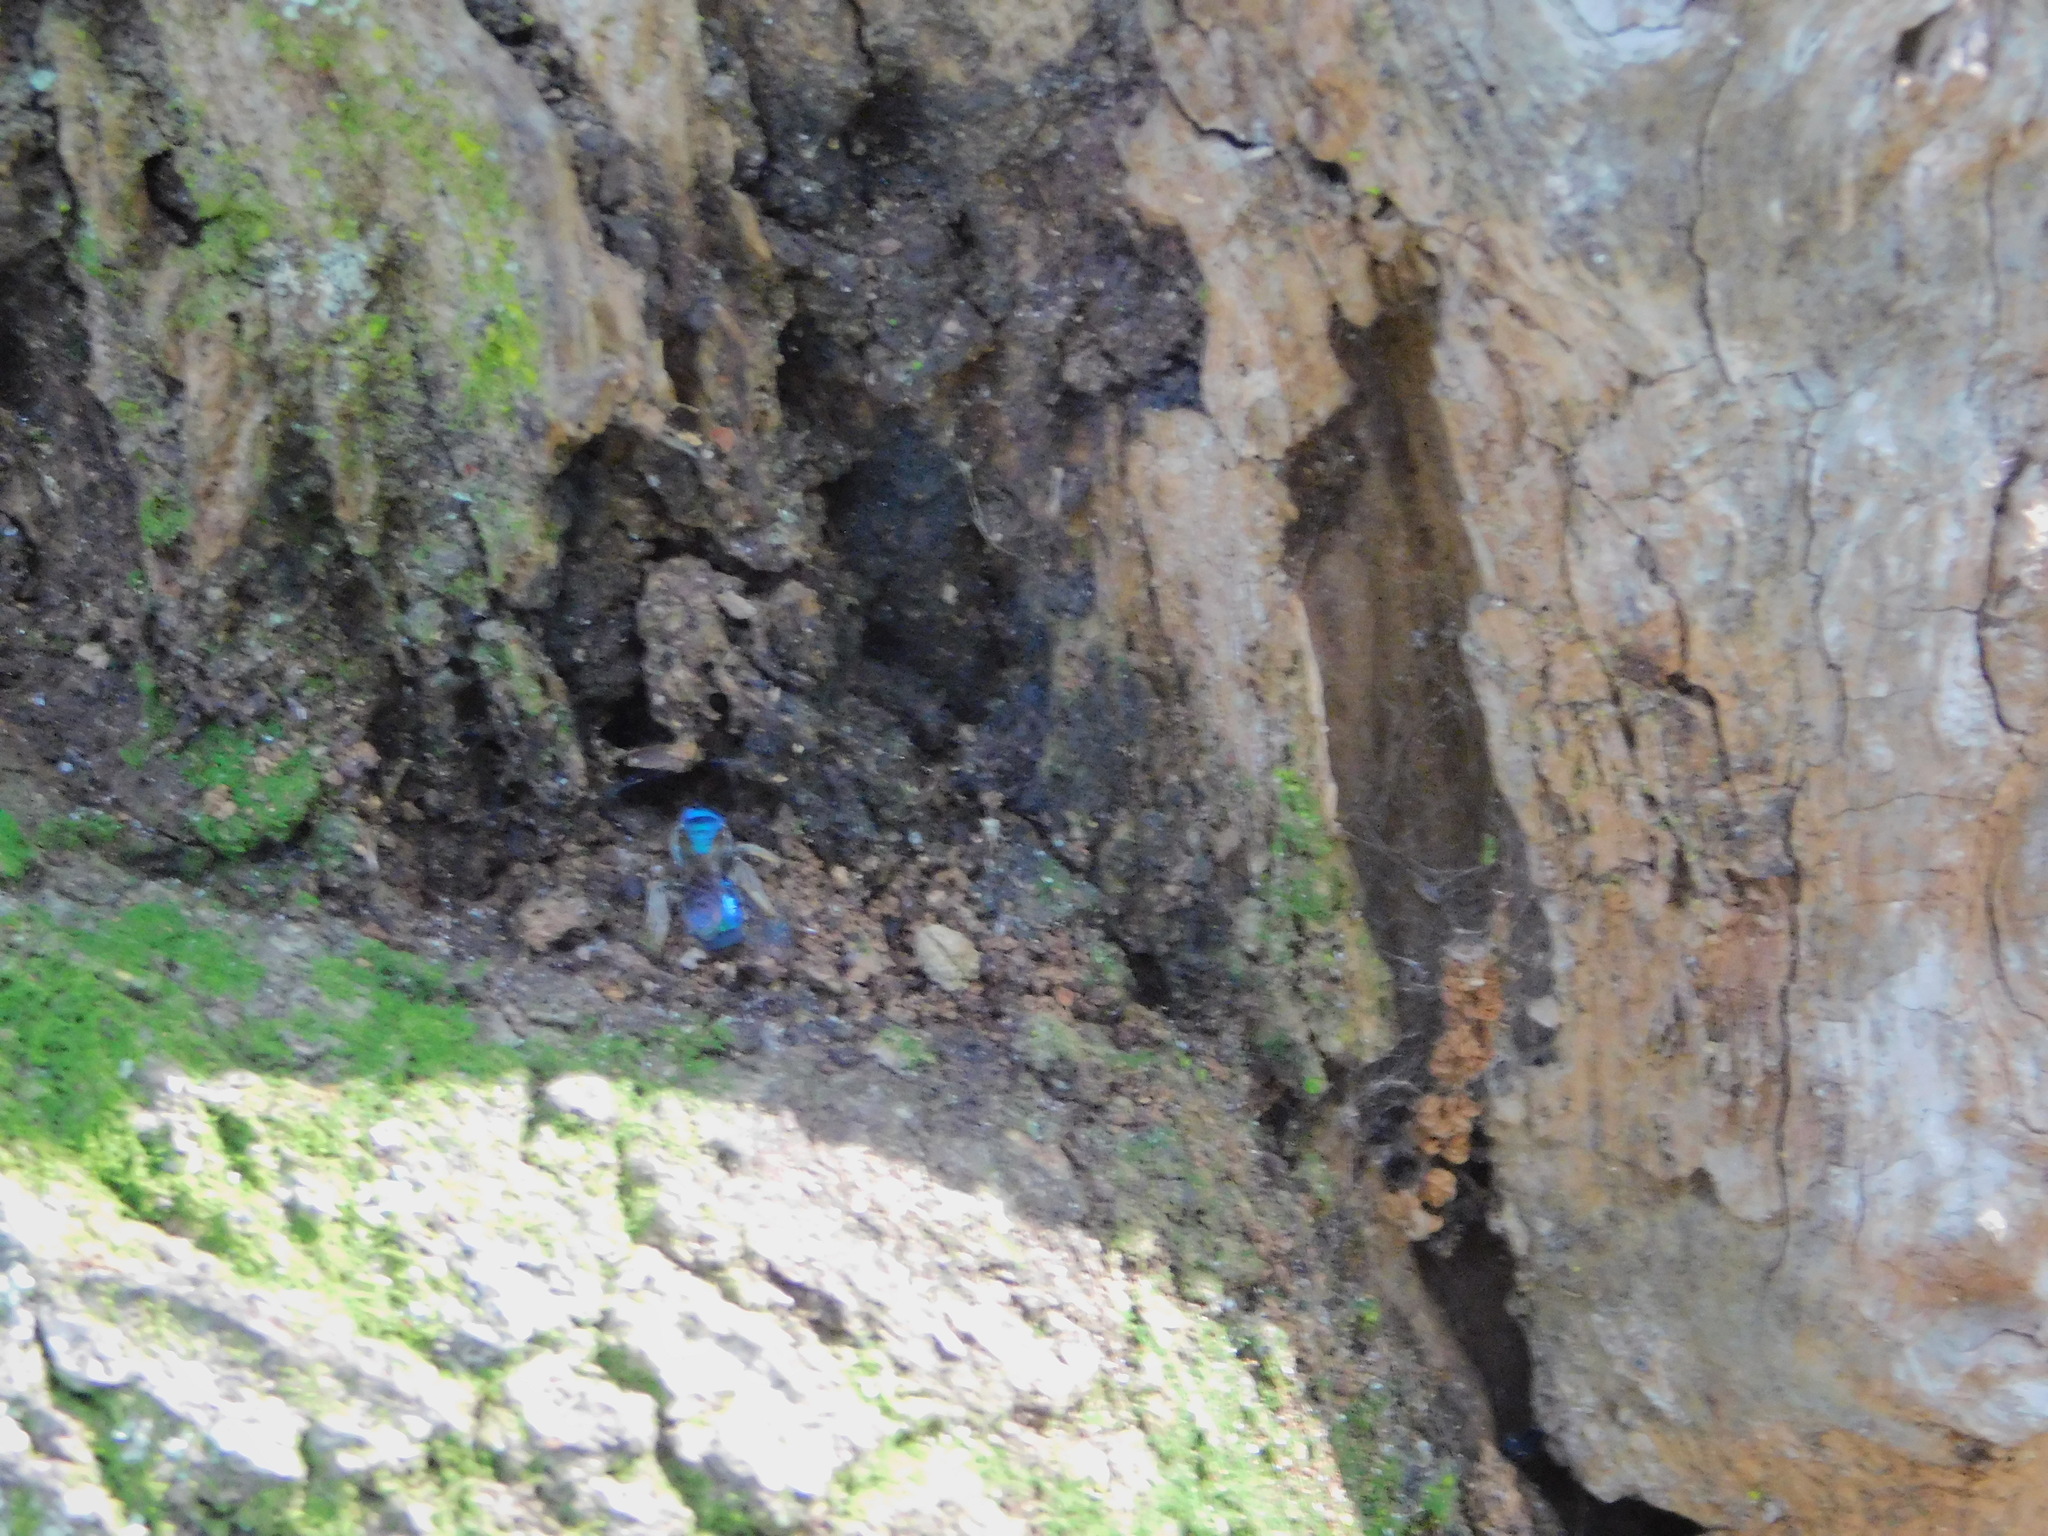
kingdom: Animalia
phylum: Arthropoda
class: Insecta
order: Hymenoptera
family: Halictidae
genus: Augochlora
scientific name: Augochlora pura
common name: Pure green sweat bee
